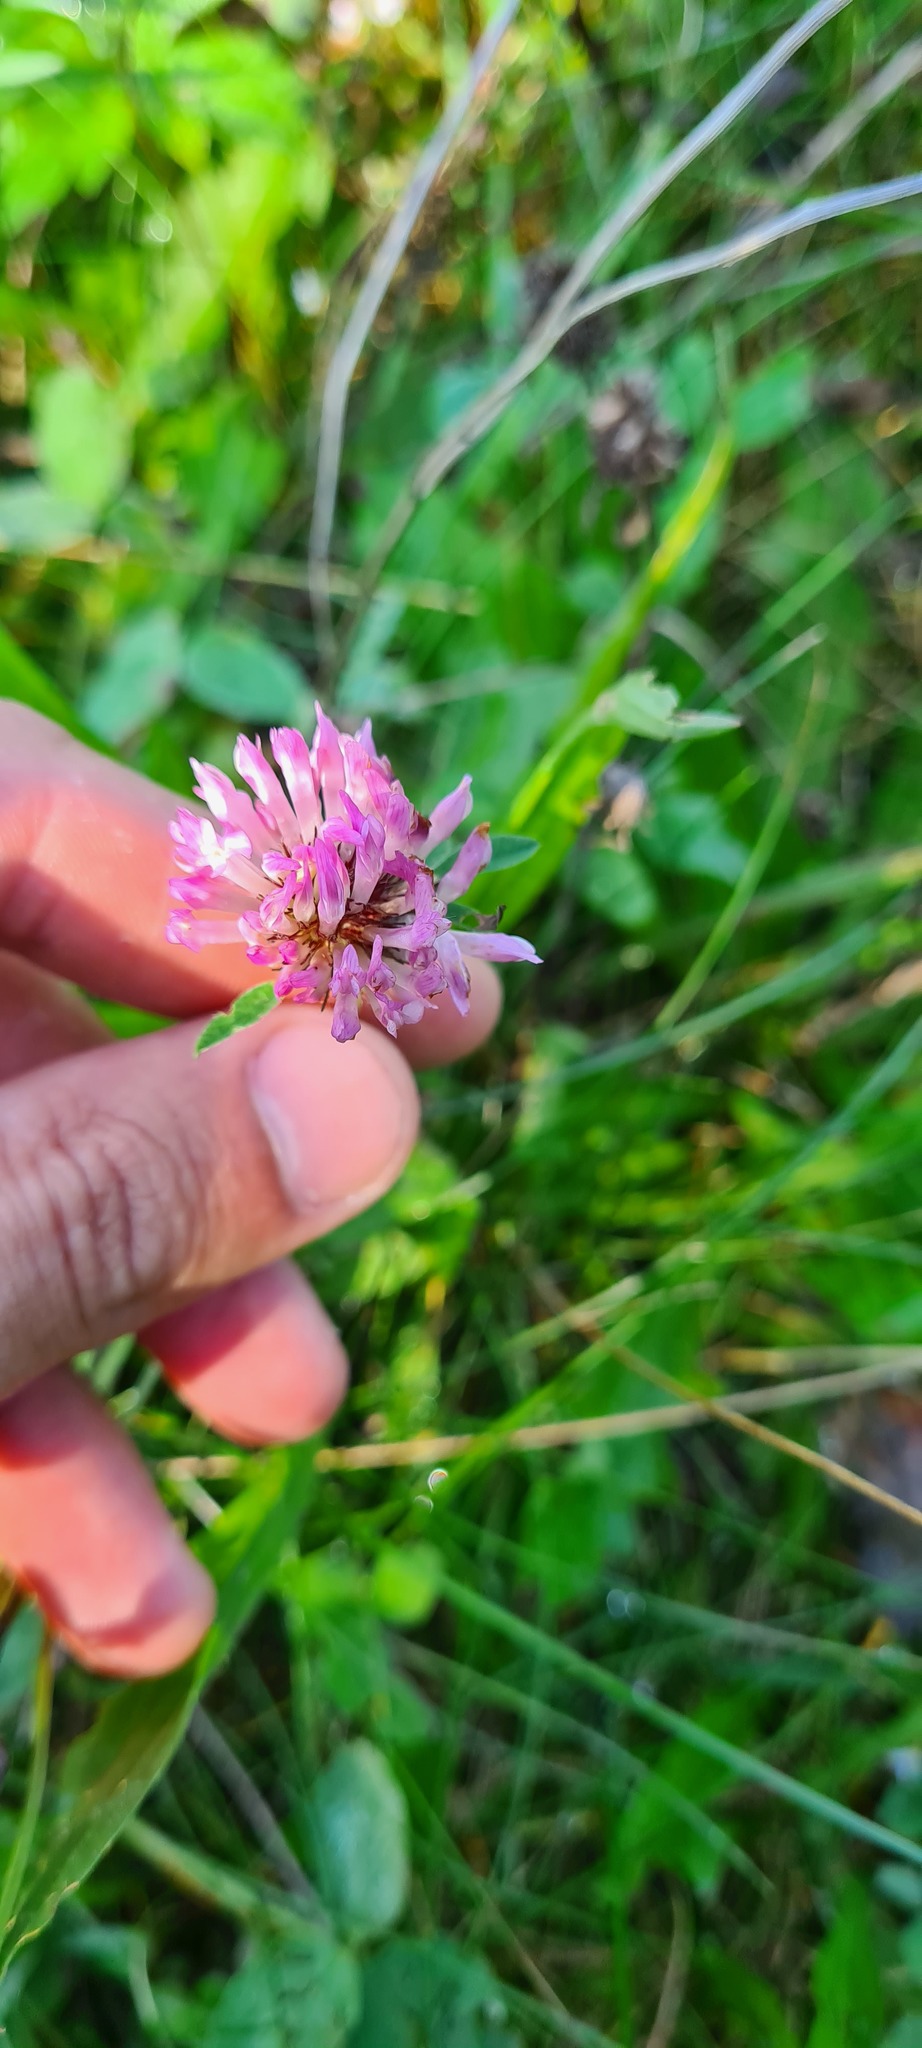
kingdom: Plantae
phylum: Tracheophyta
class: Magnoliopsida
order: Fabales
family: Fabaceae
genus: Trifolium
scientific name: Trifolium pratense
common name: Red clover
